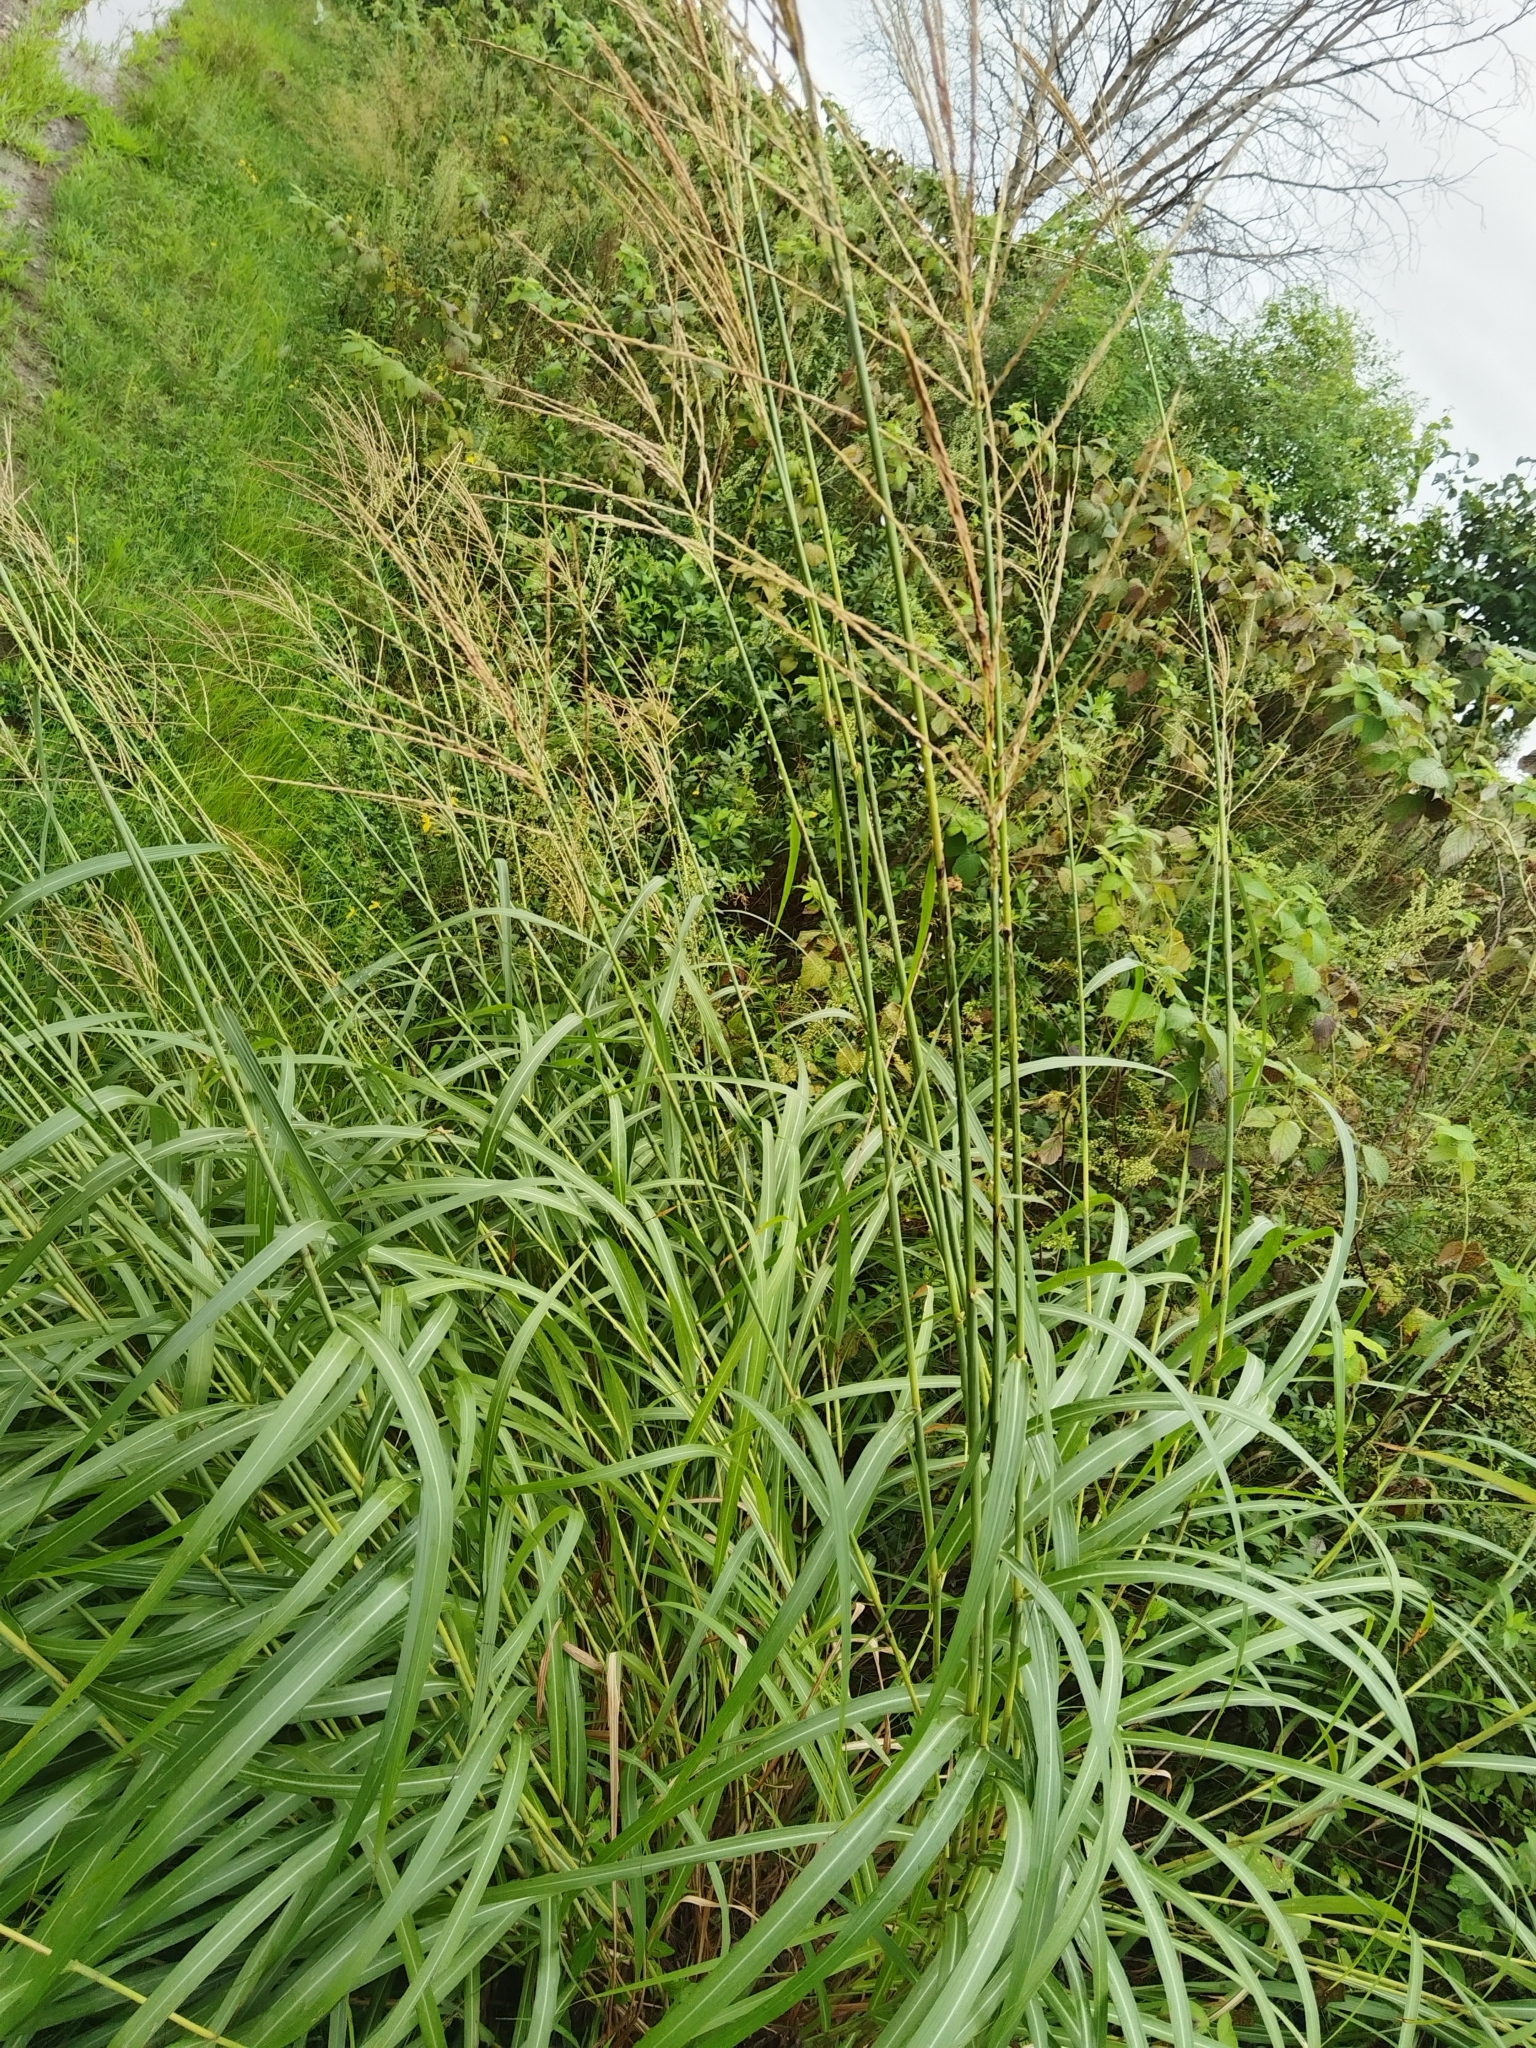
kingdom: Plantae
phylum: Tracheophyta
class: Liliopsida
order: Poales
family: Poaceae
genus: Miscanthus
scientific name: Miscanthus sinensis
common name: Chinese silvergrass
